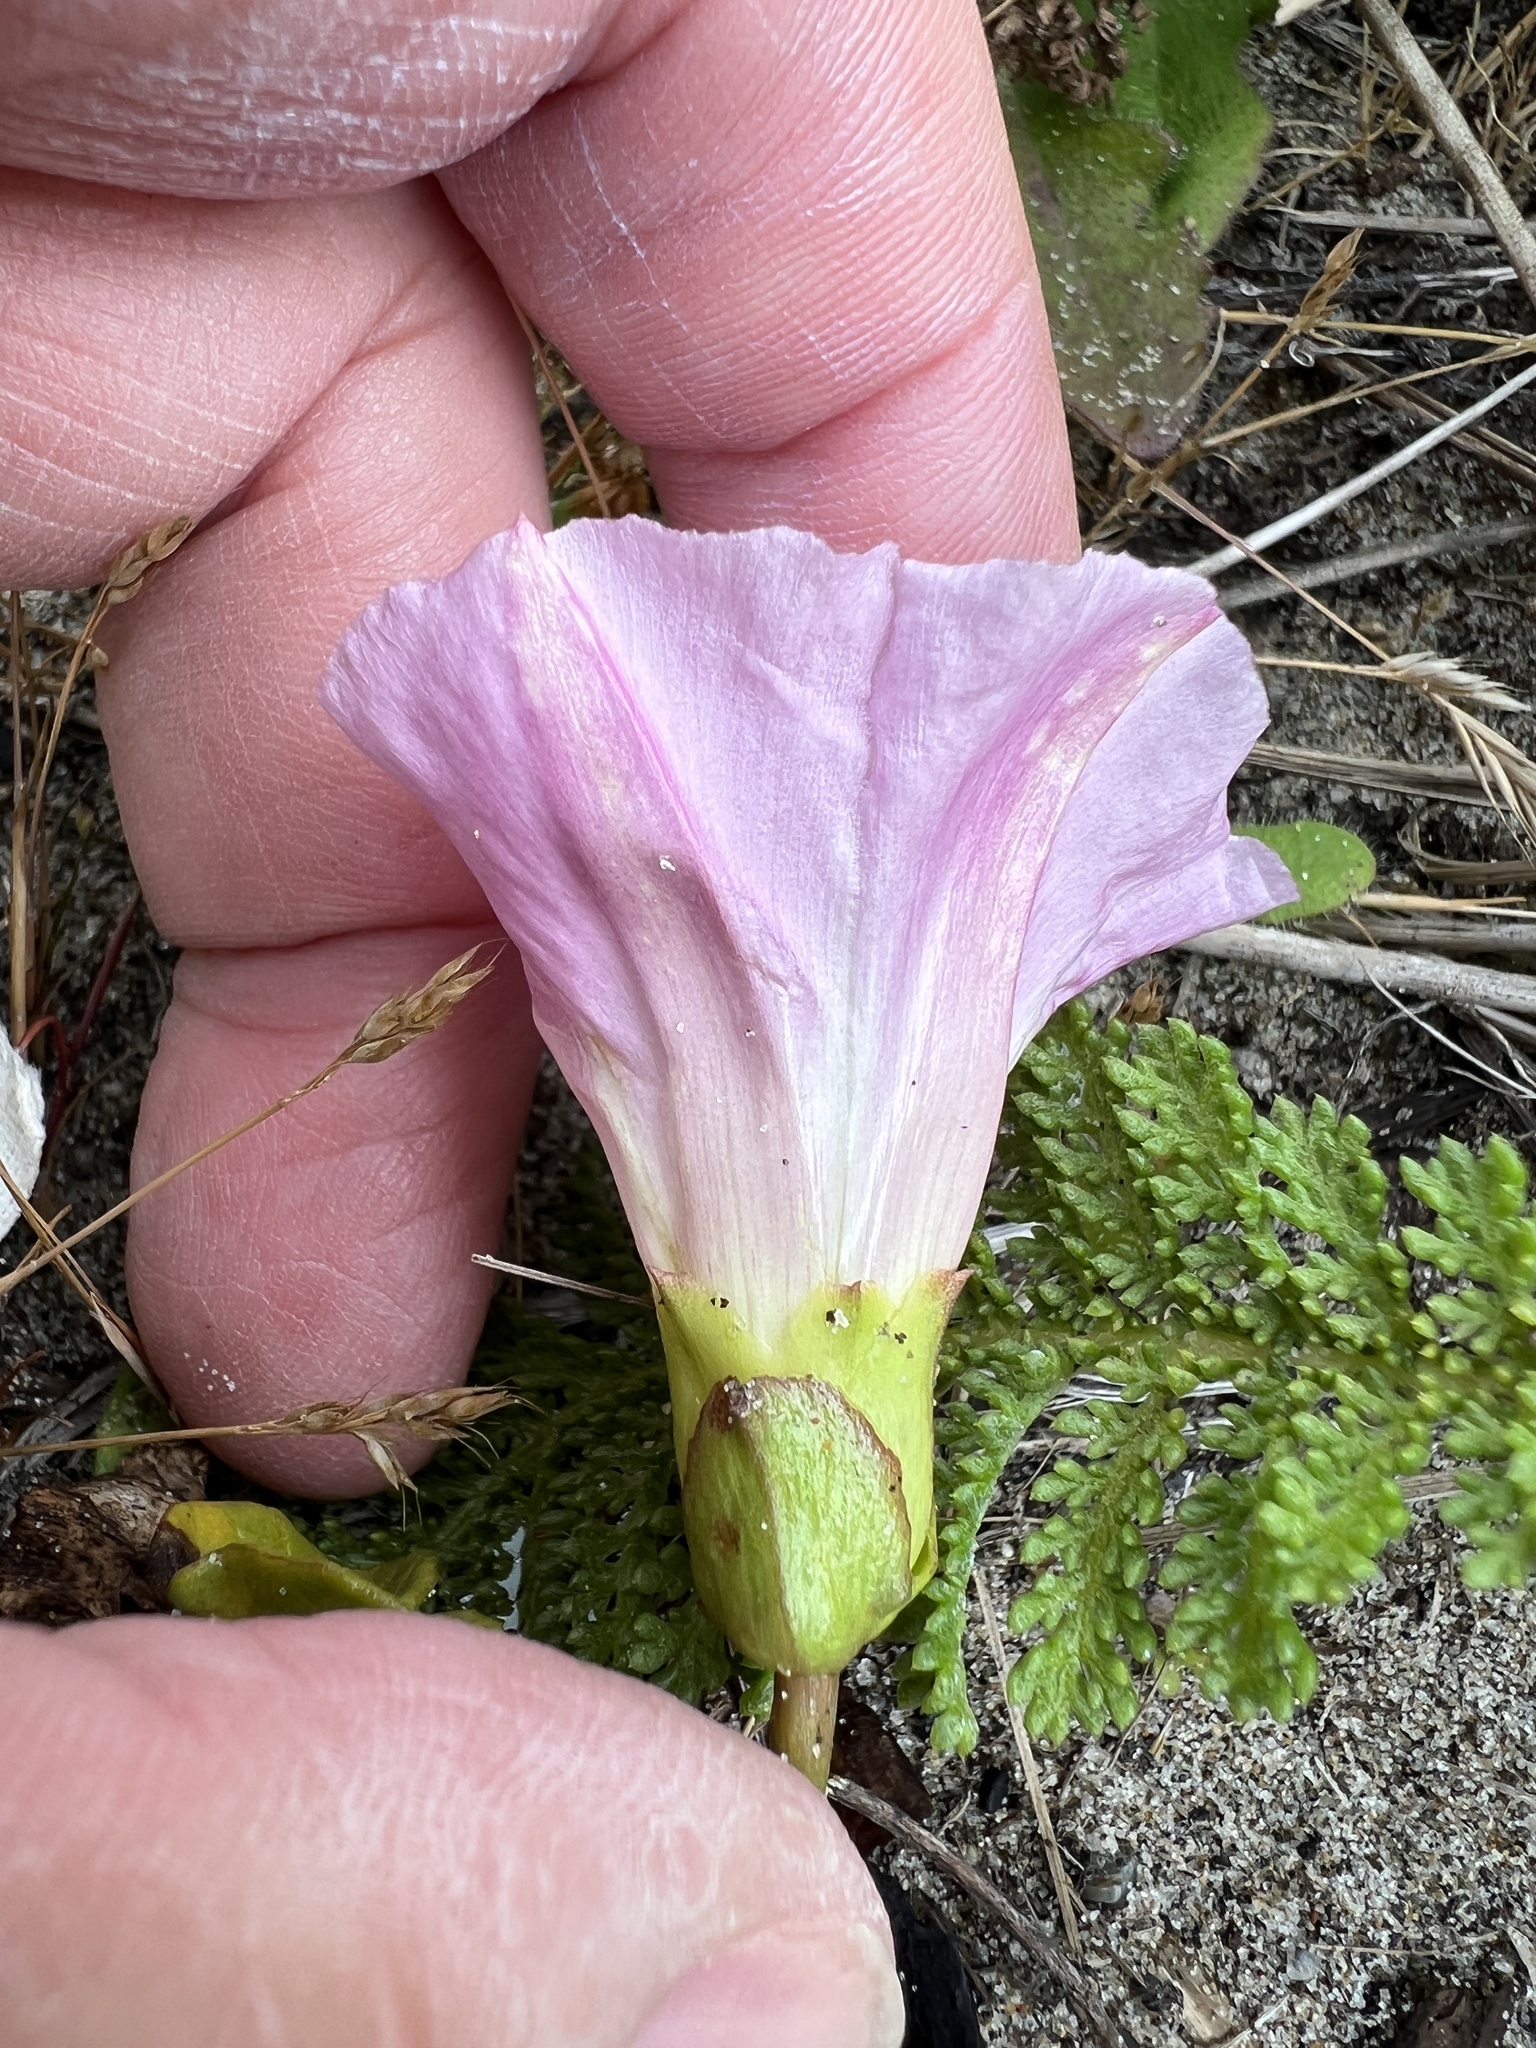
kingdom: Plantae
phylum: Tracheophyta
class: Magnoliopsida
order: Solanales
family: Convolvulaceae
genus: Calystegia
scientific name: Calystegia soldanella
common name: Sea bindweed
